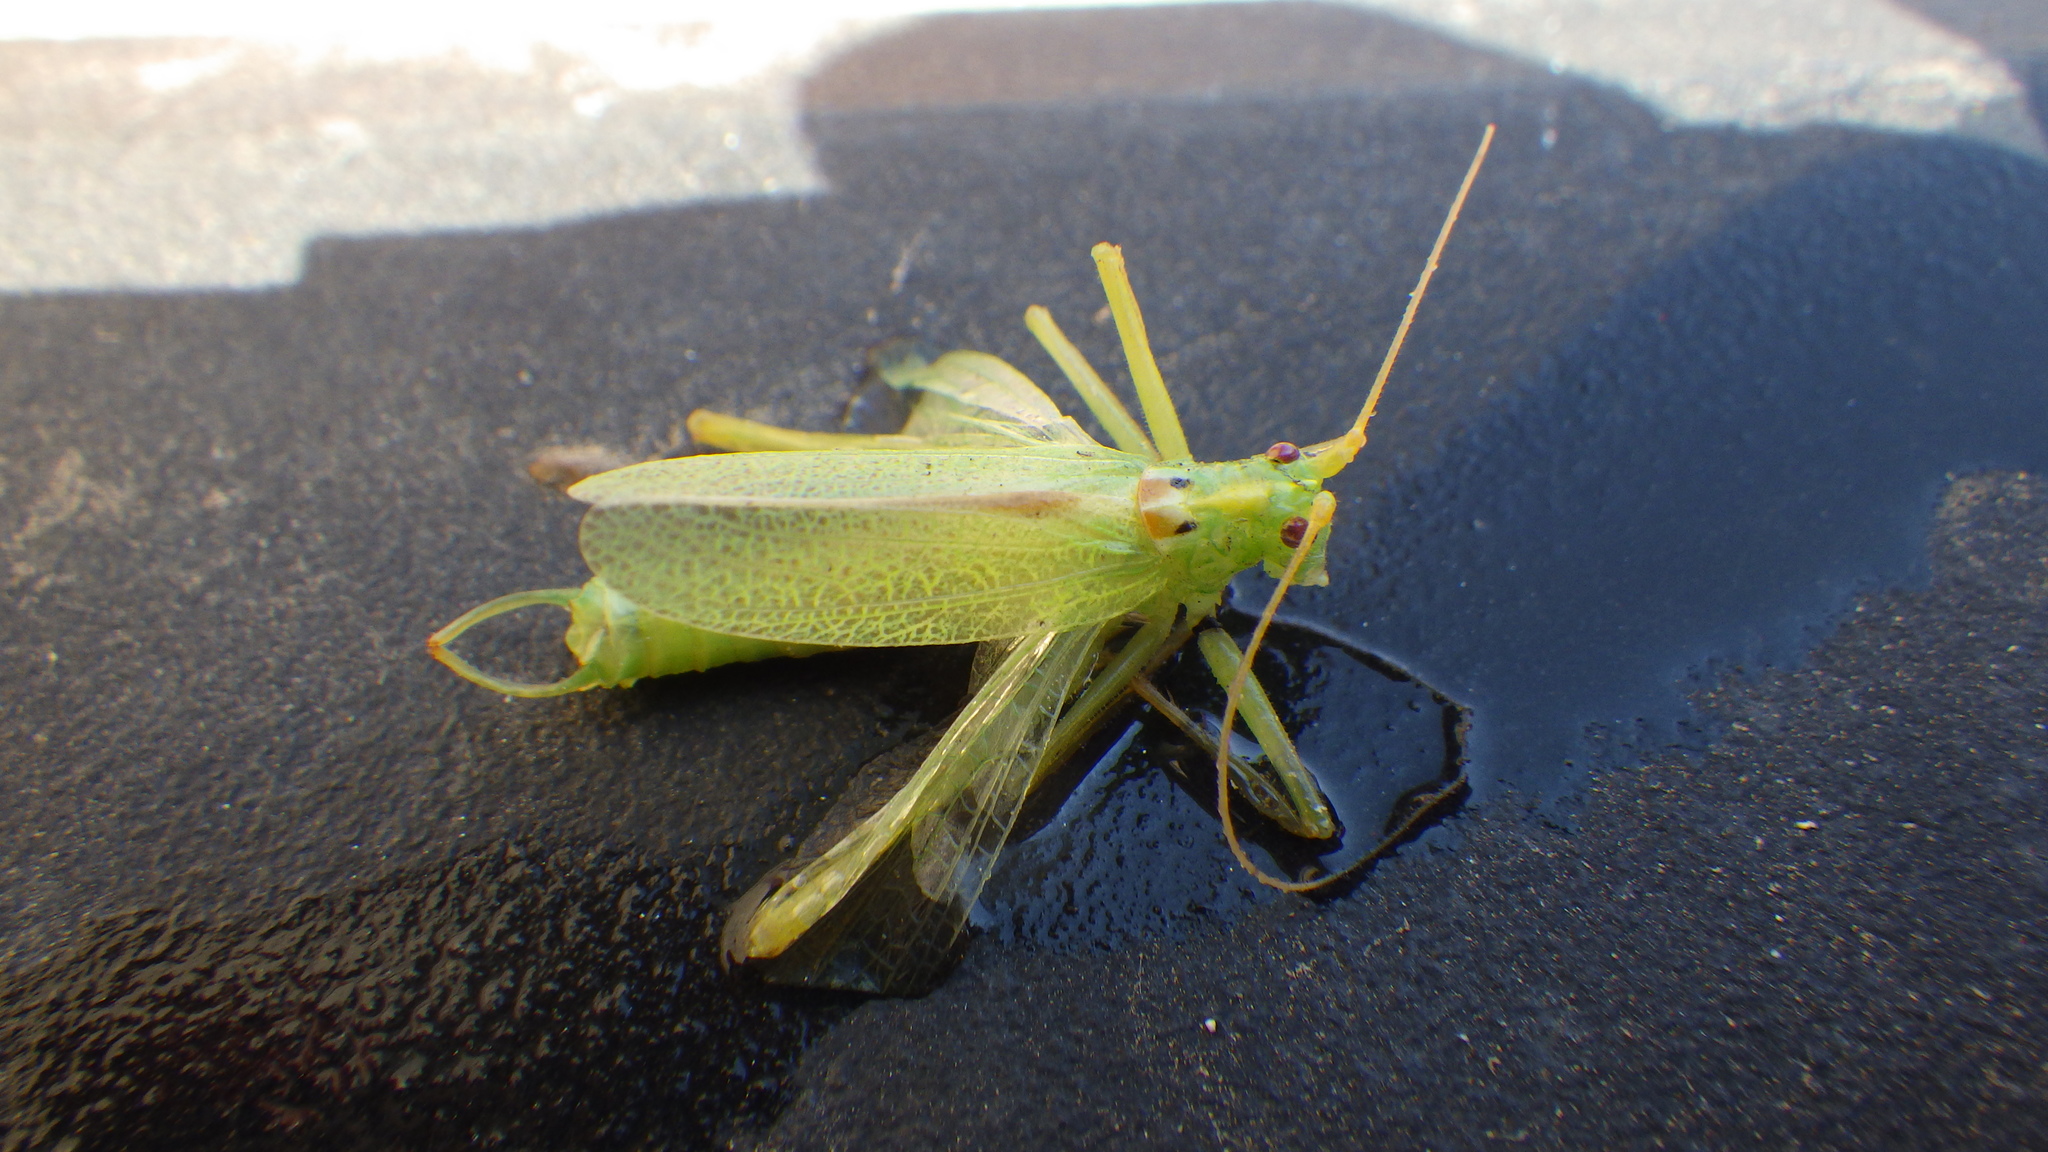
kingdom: Animalia
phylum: Arthropoda
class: Insecta
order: Orthoptera
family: Tettigoniidae
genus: Meconema
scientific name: Meconema thalassinum
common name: Oak bush-cricket
